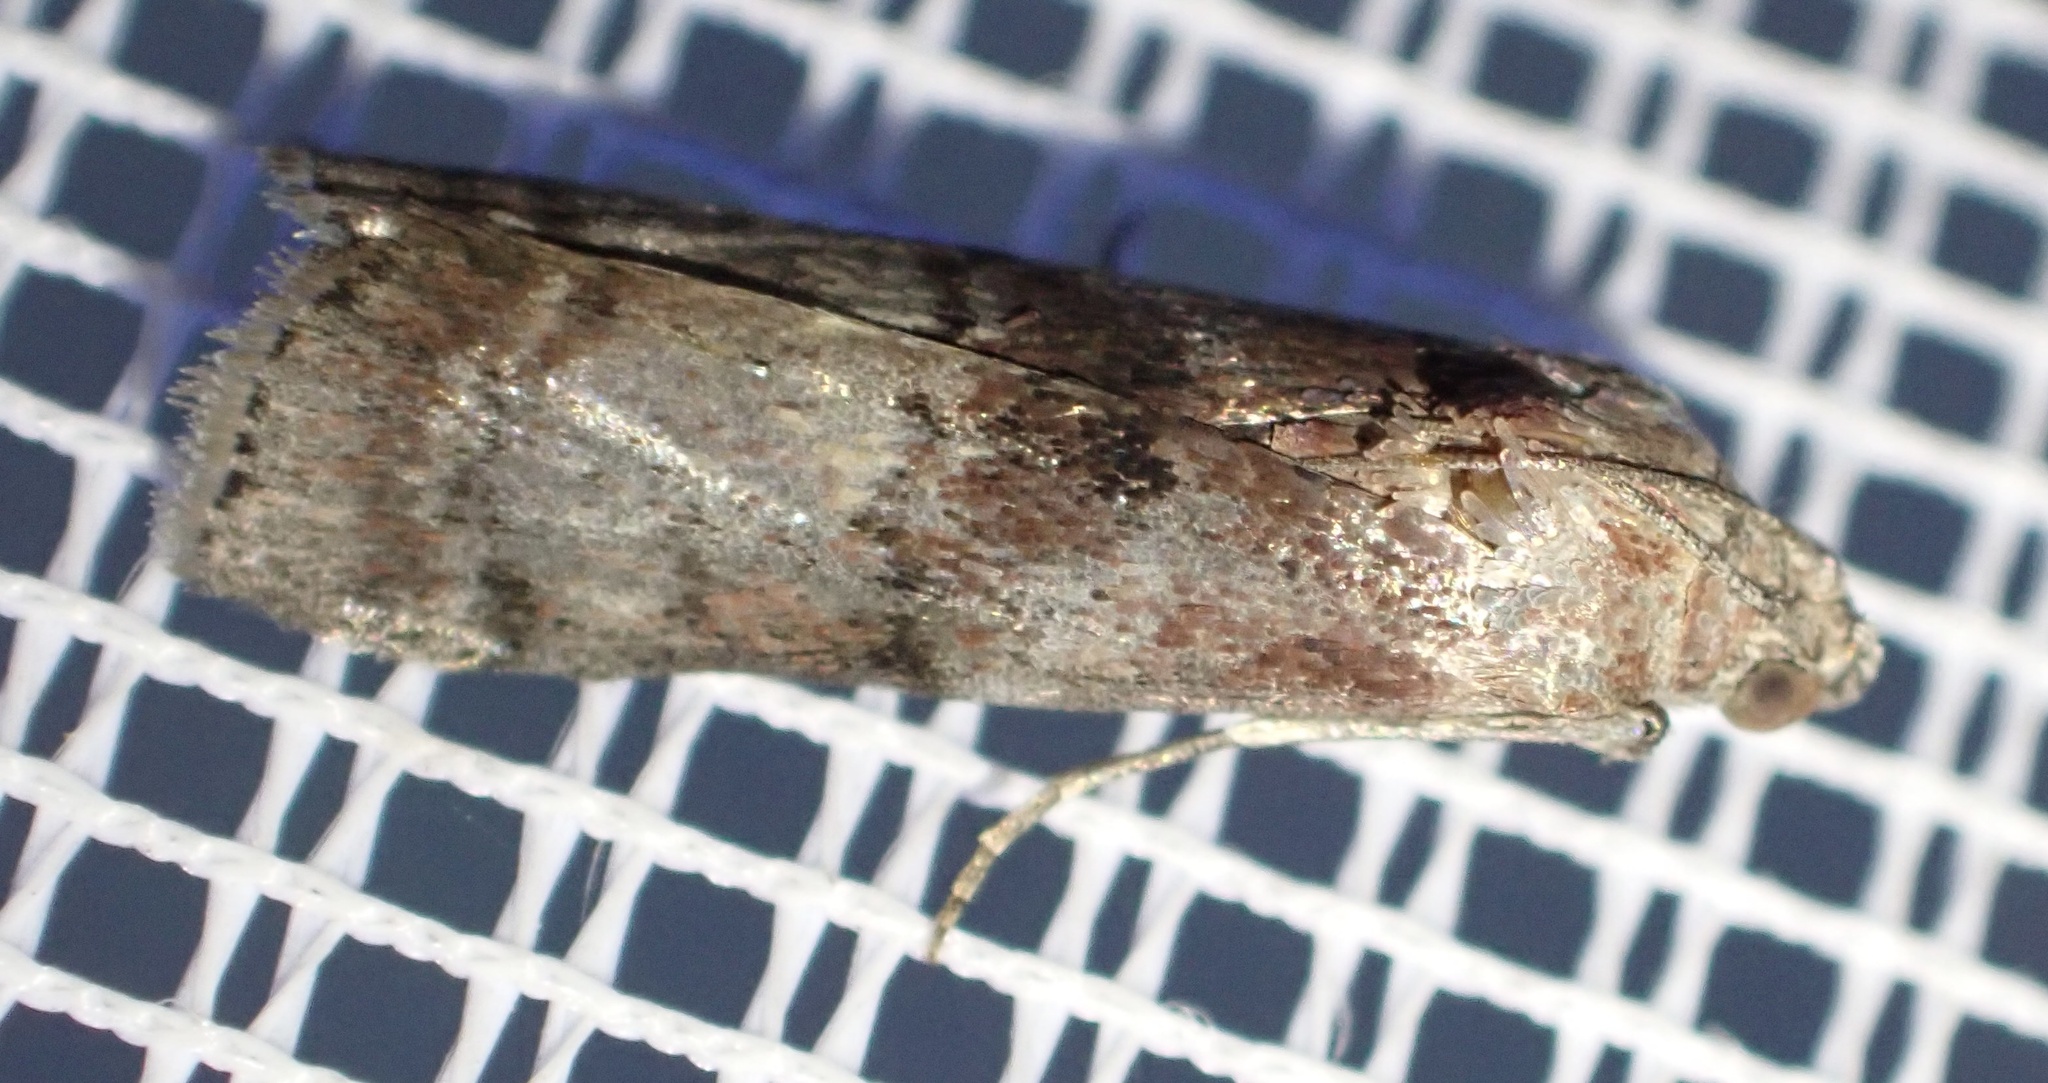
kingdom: Animalia
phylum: Arthropoda
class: Insecta
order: Lepidoptera
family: Pyralidae
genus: Phycita
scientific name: Phycita roborella
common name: Dotted oak knot-horn
